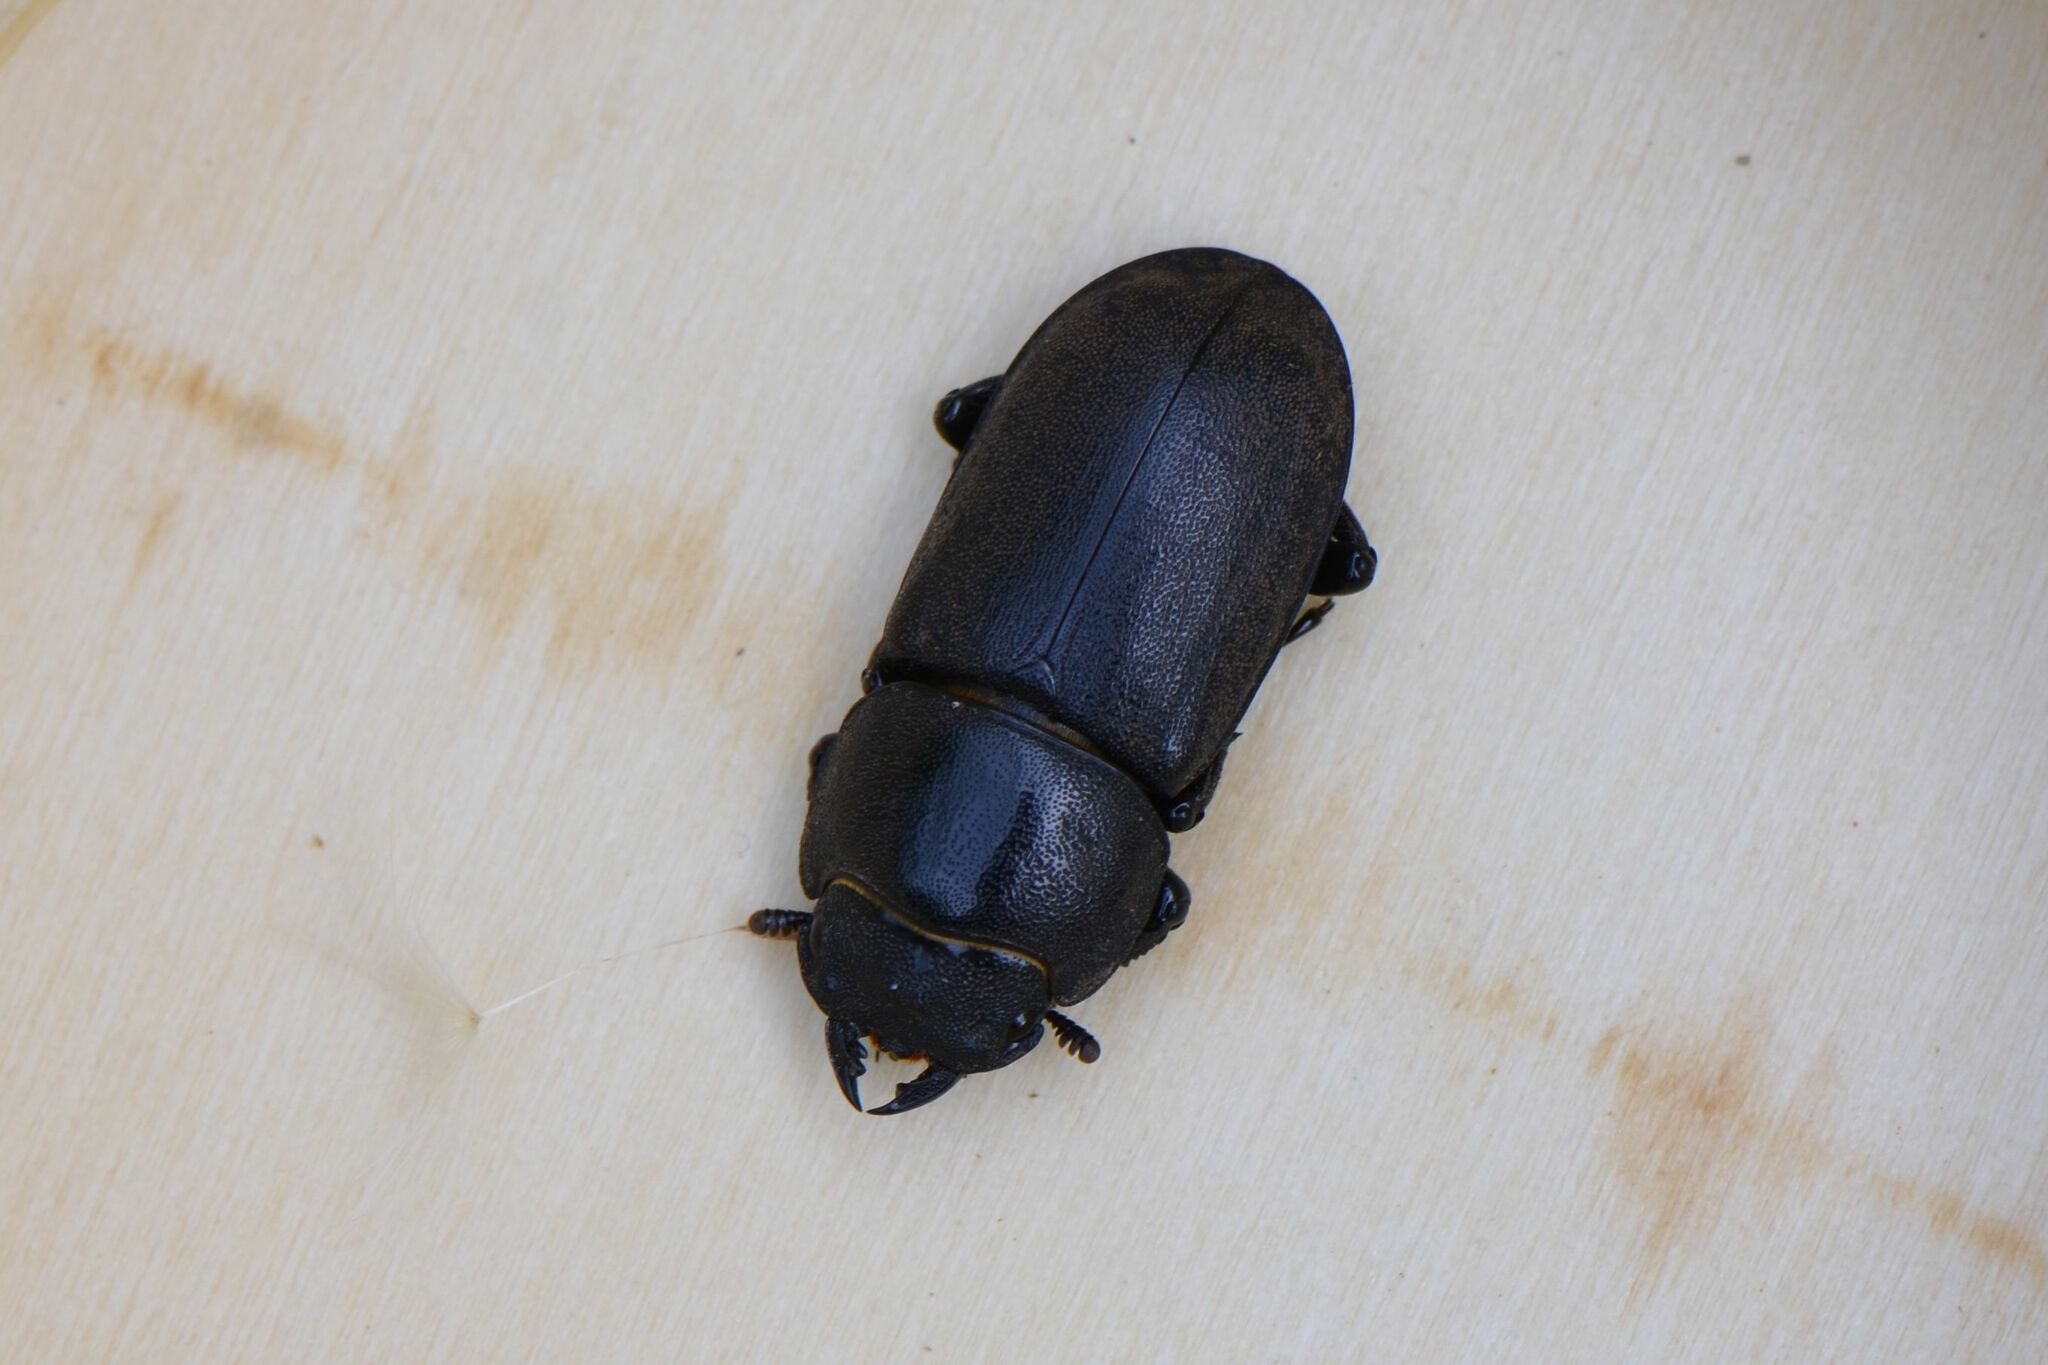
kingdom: Animalia
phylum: Arthropoda
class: Insecta
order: Coleoptera
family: Lucanidae
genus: Dorcus
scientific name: Dorcus parallelipipedus
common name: Lesser stag beetle
